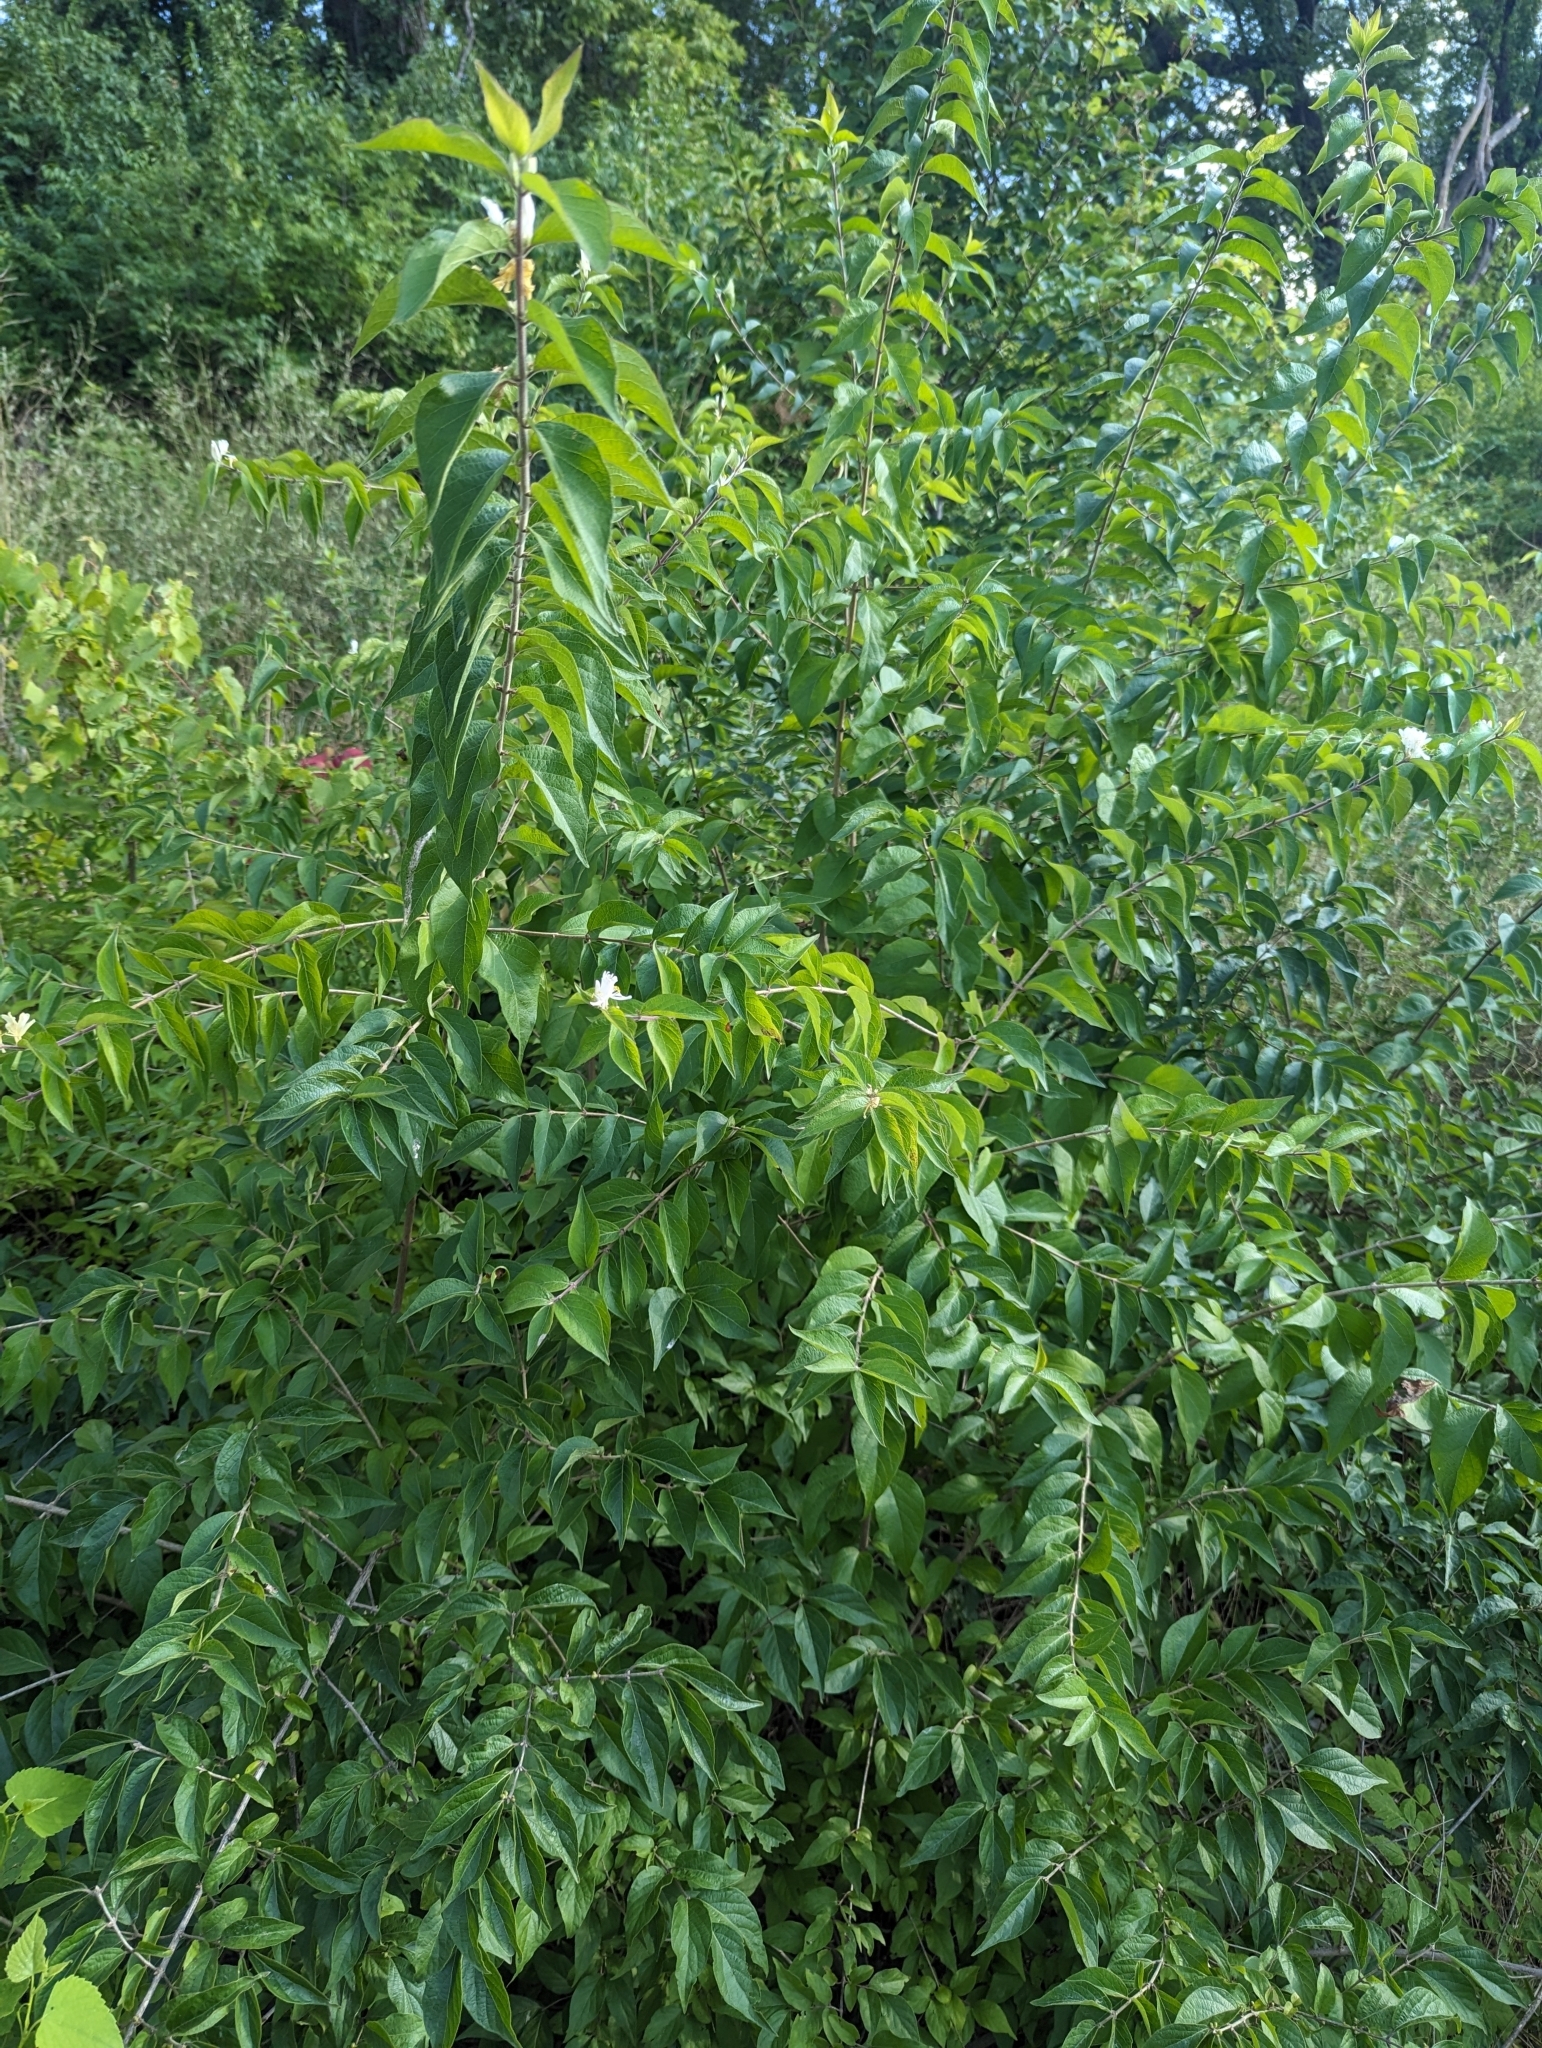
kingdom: Plantae
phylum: Tracheophyta
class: Magnoliopsida
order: Dipsacales
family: Caprifoliaceae
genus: Lonicera
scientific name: Lonicera maackii
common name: Amur honeysuckle
